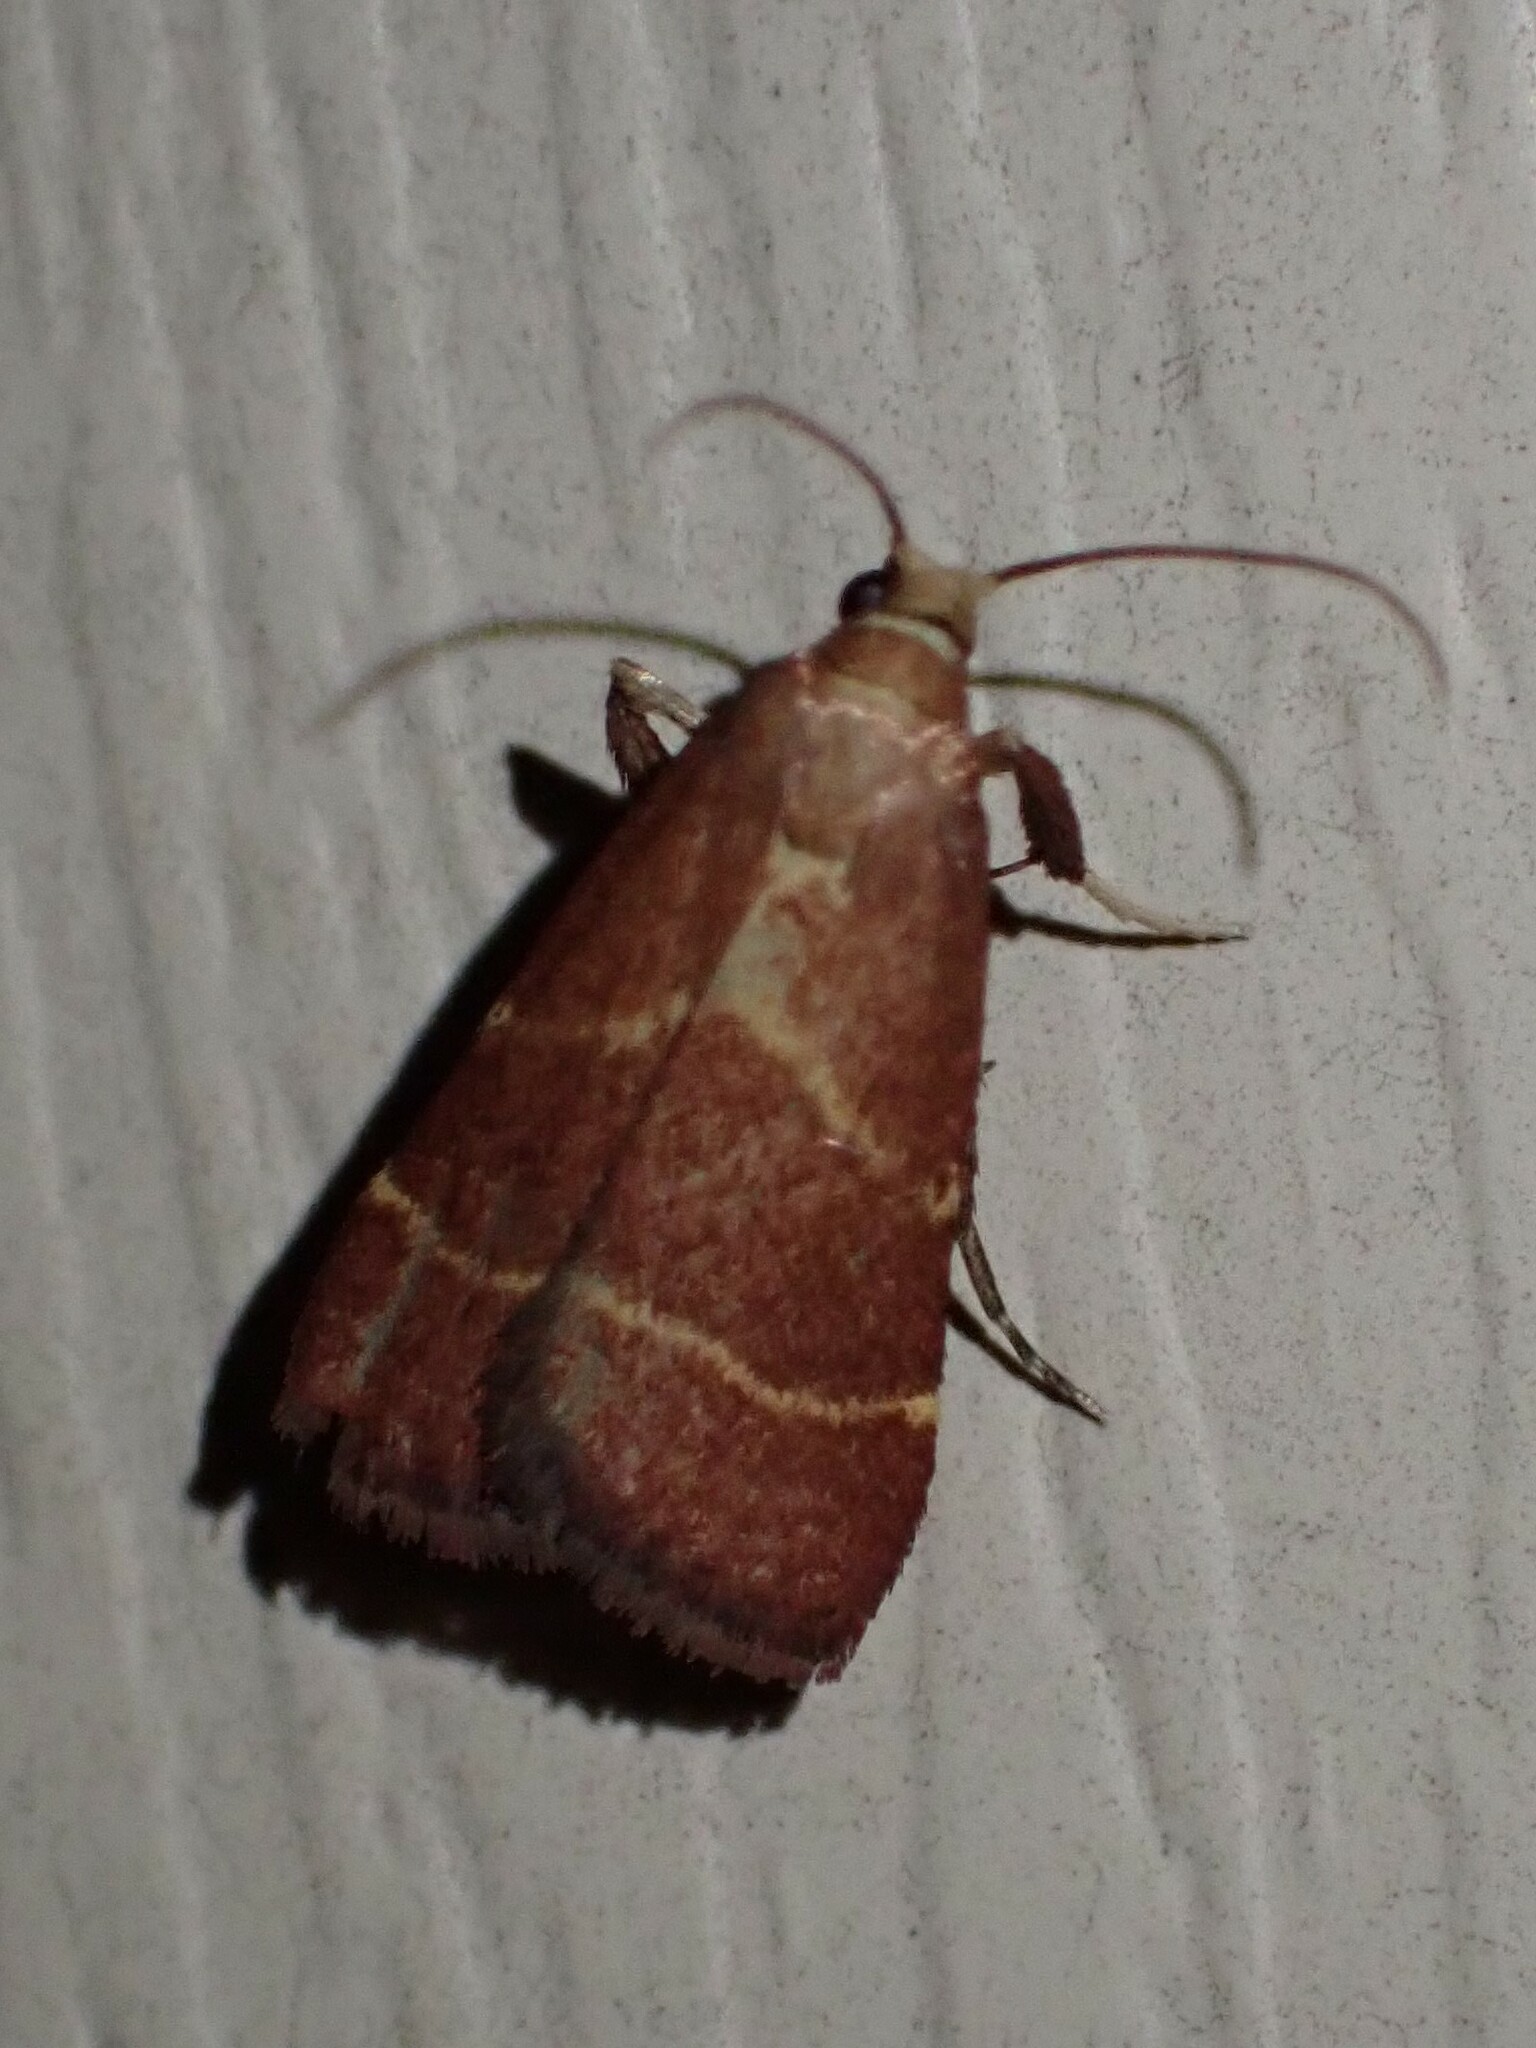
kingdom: Animalia
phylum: Arthropoda
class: Insecta
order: Lepidoptera
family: Pyralidae
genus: Arta
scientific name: Arta statalis
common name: Posturing arta moth
